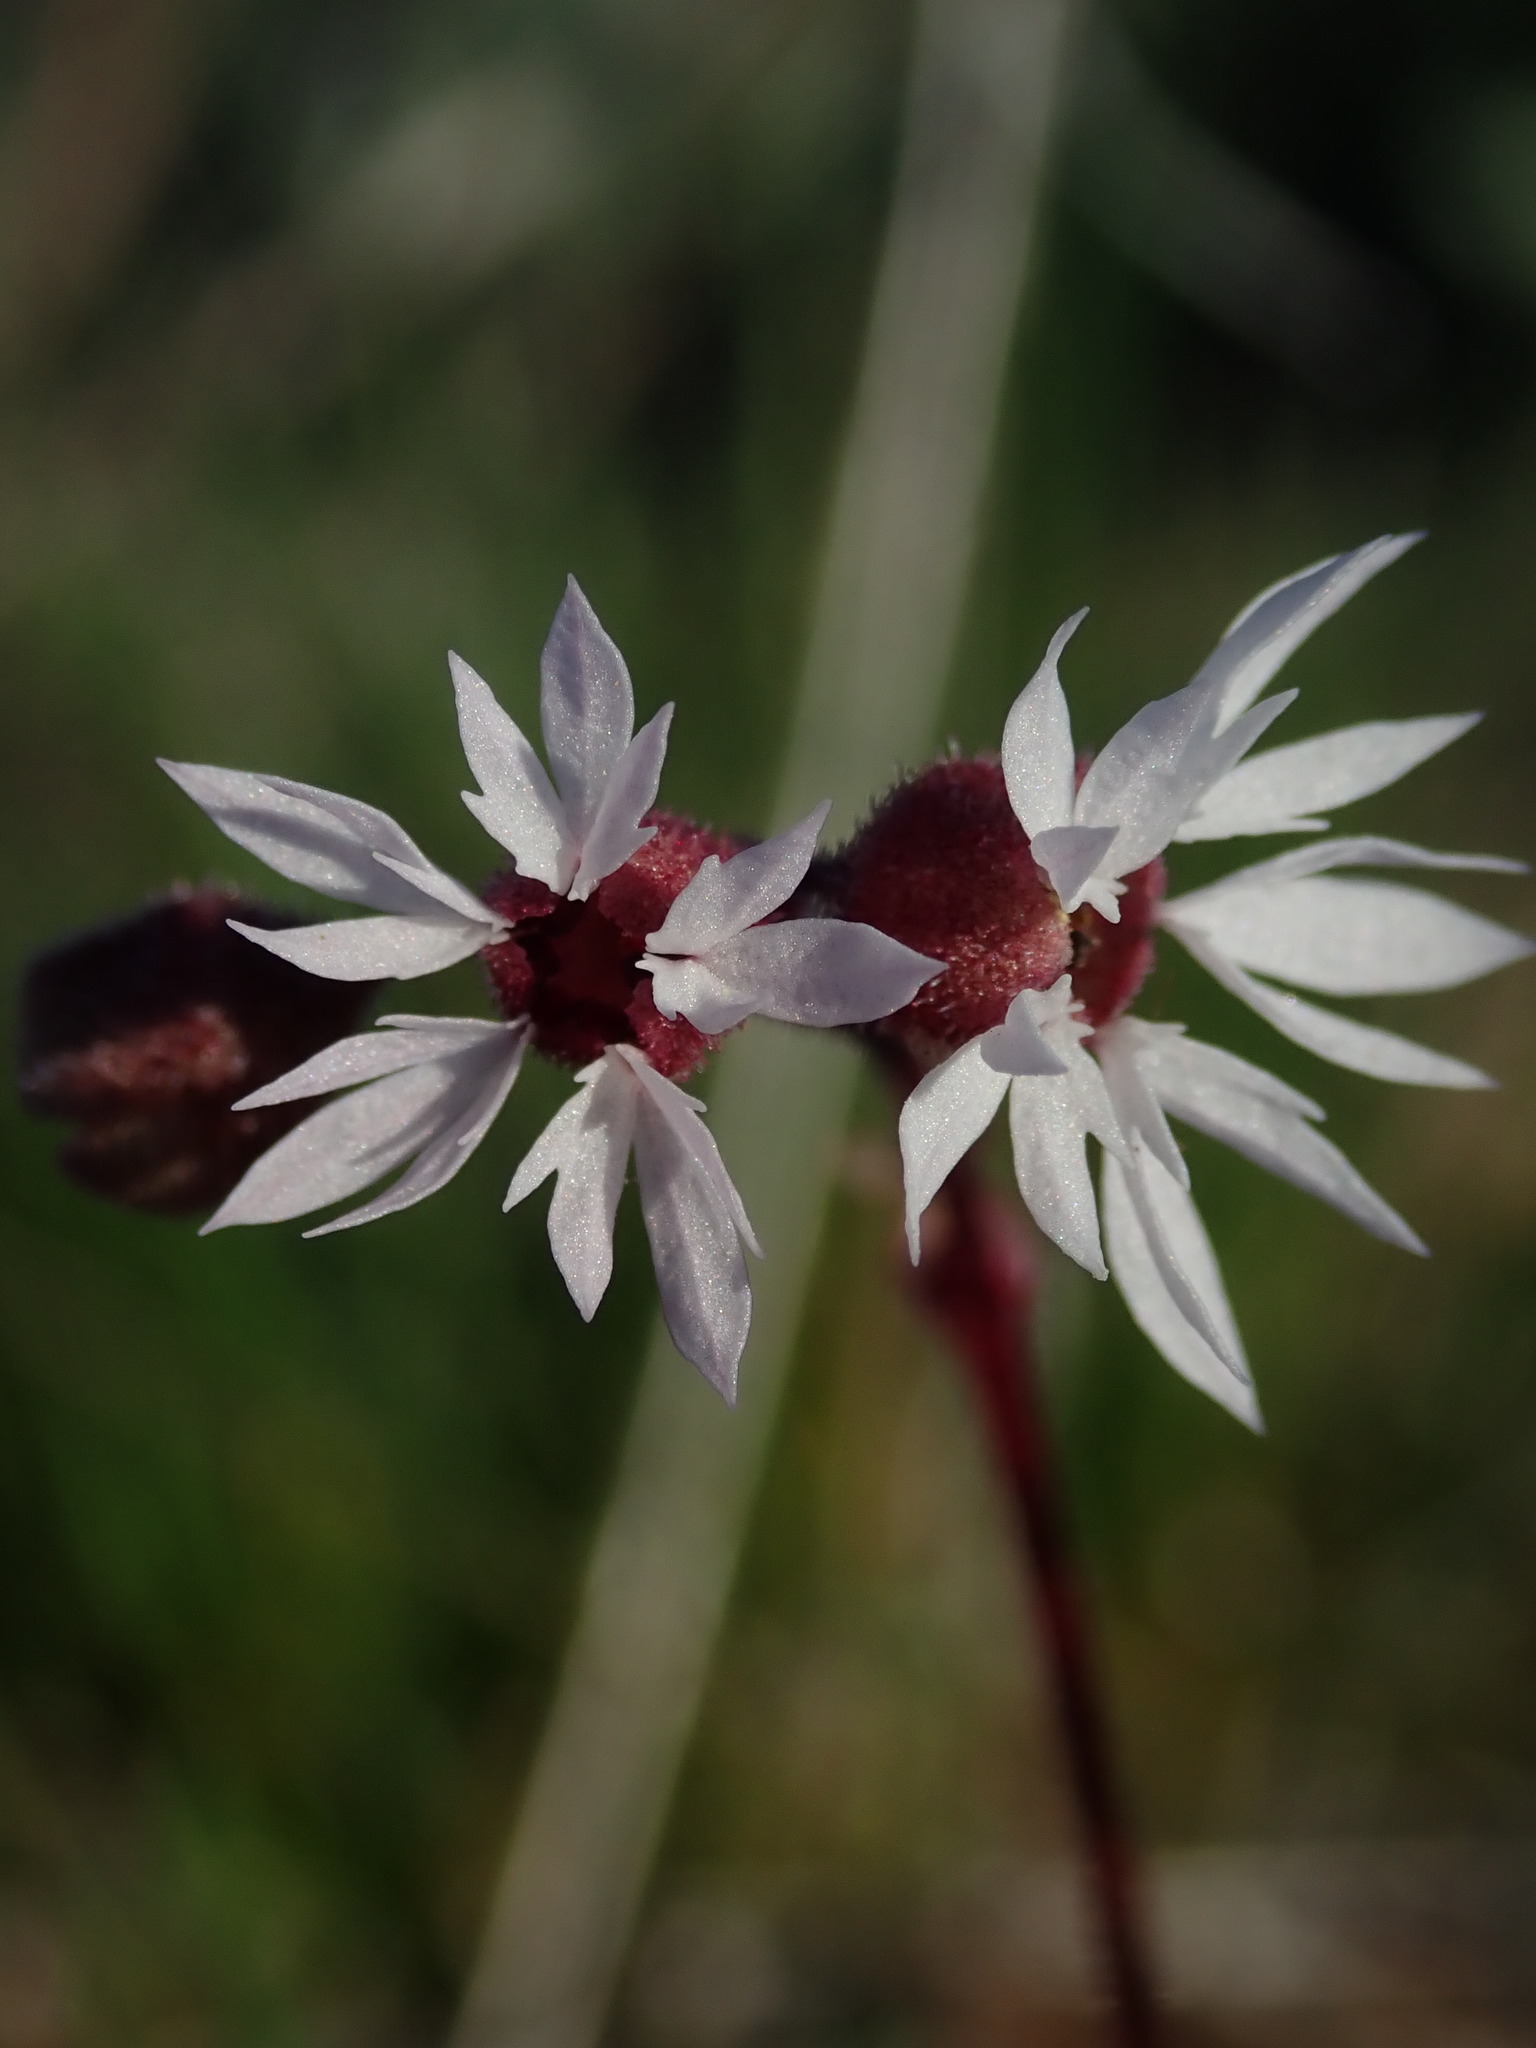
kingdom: Plantae
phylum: Tracheophyta
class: Magnoliopsida
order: Saxifragales
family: Saxifragaceae
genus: Lithophragma
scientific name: Lithophragma glabrum
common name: Bulbous prairie-star
